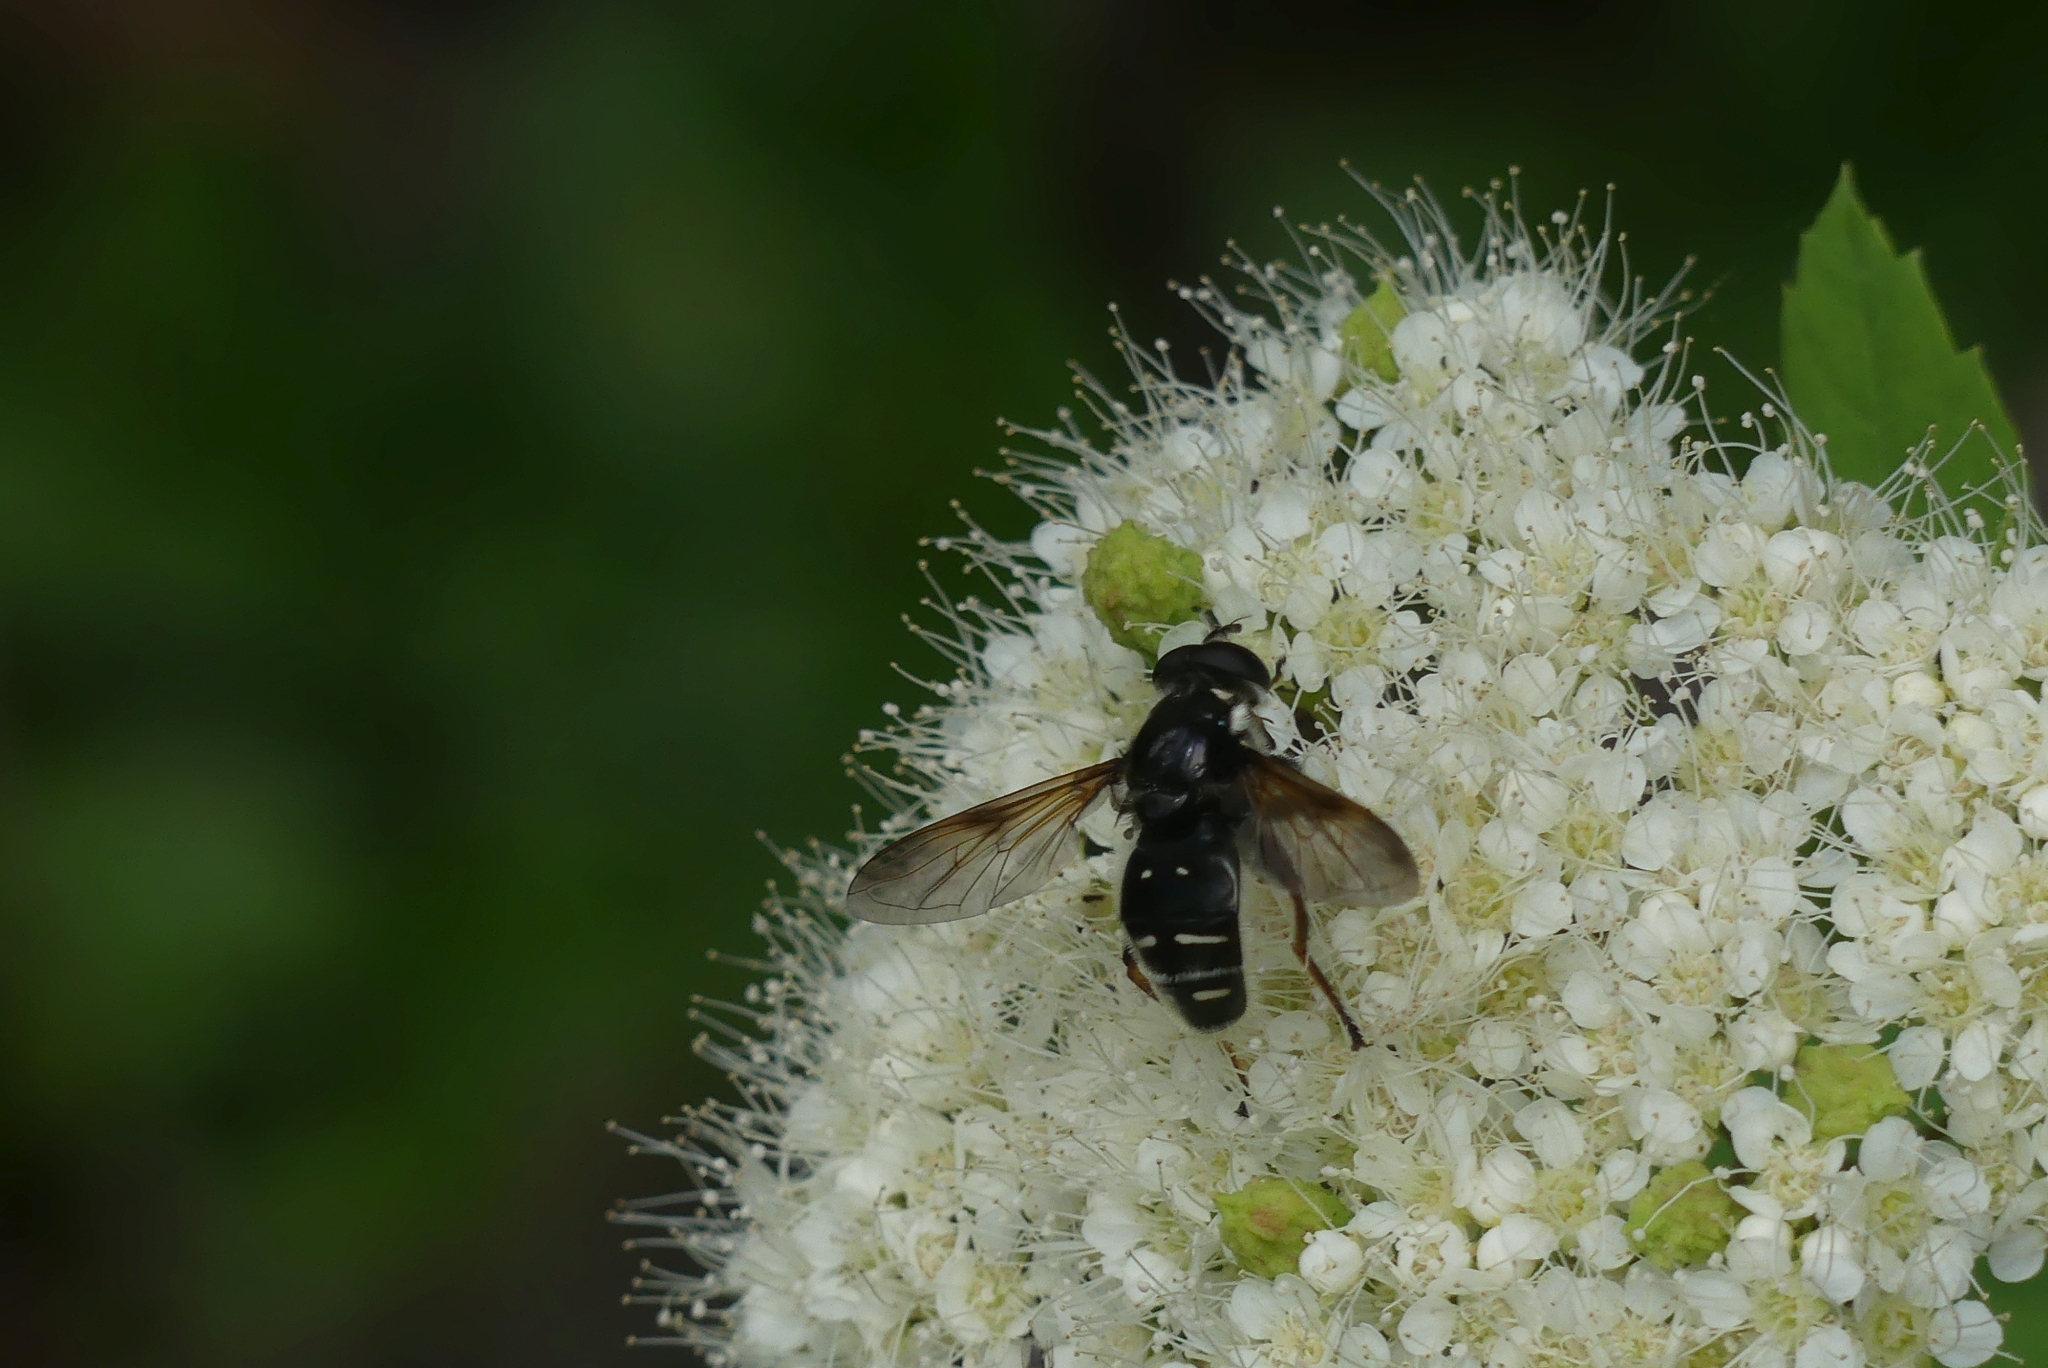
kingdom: Animalia
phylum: Arthropoda
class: Insecta
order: Diptera
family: Syrphidae
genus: Sericomyia
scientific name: Sericomyia militaris
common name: Narrow-banded pond fly
